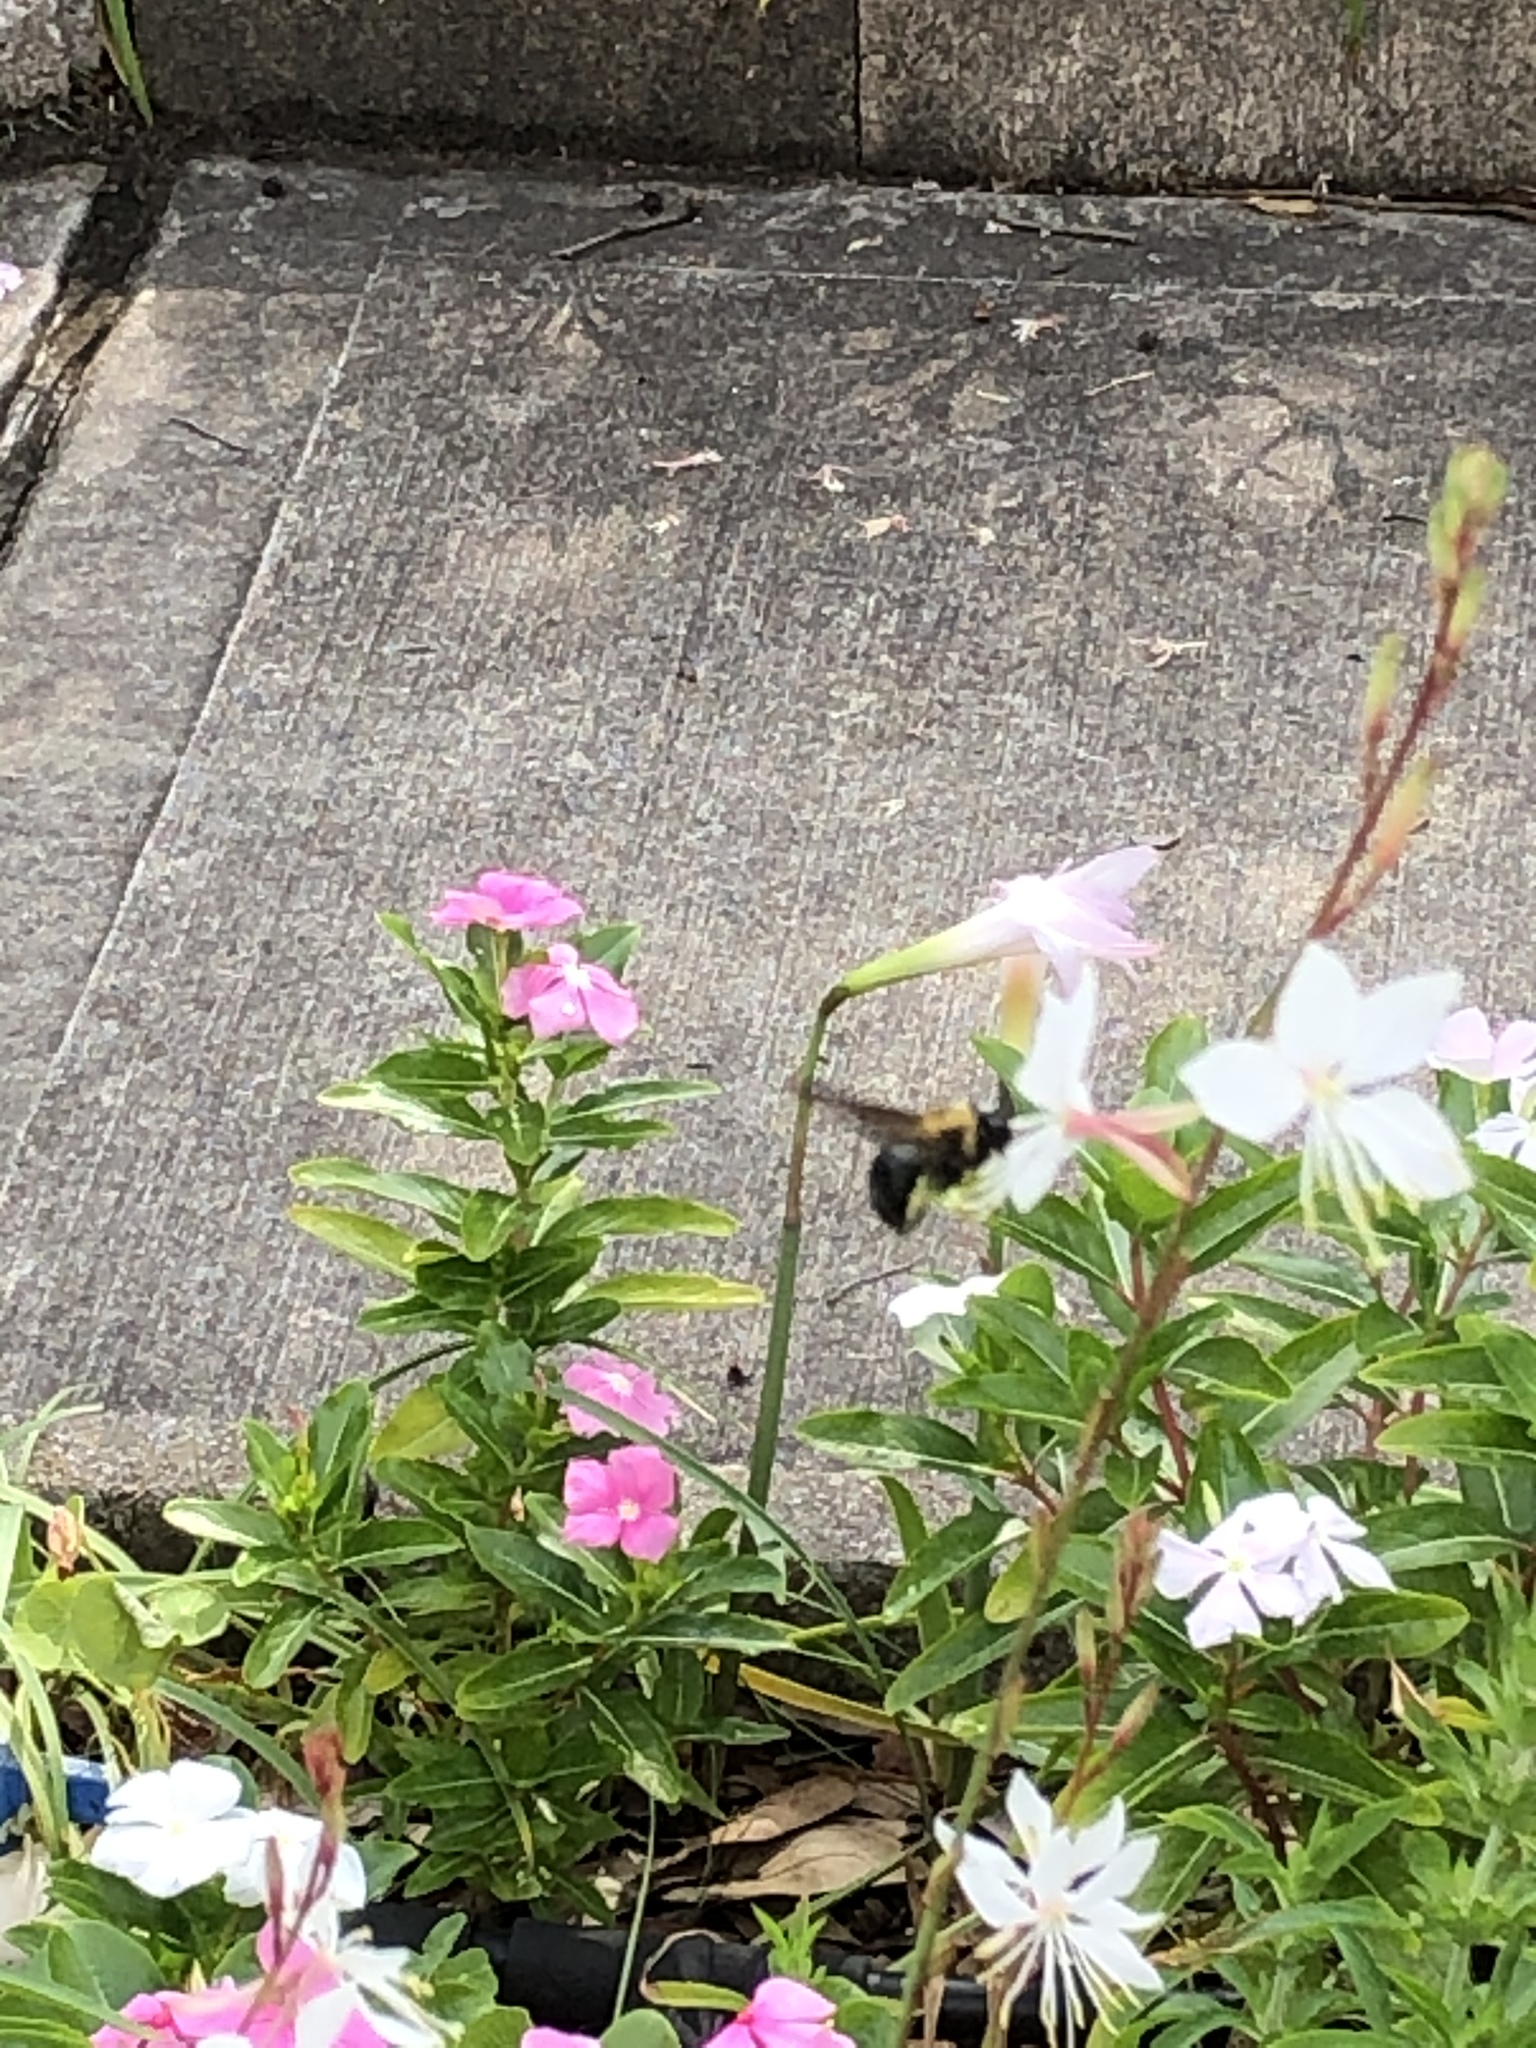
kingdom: Animalia
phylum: Arthropoda
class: Insecta
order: Hymenoptera
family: Apidae
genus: Xylocopa
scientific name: Xylocopa virginica
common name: Carpenter bee
